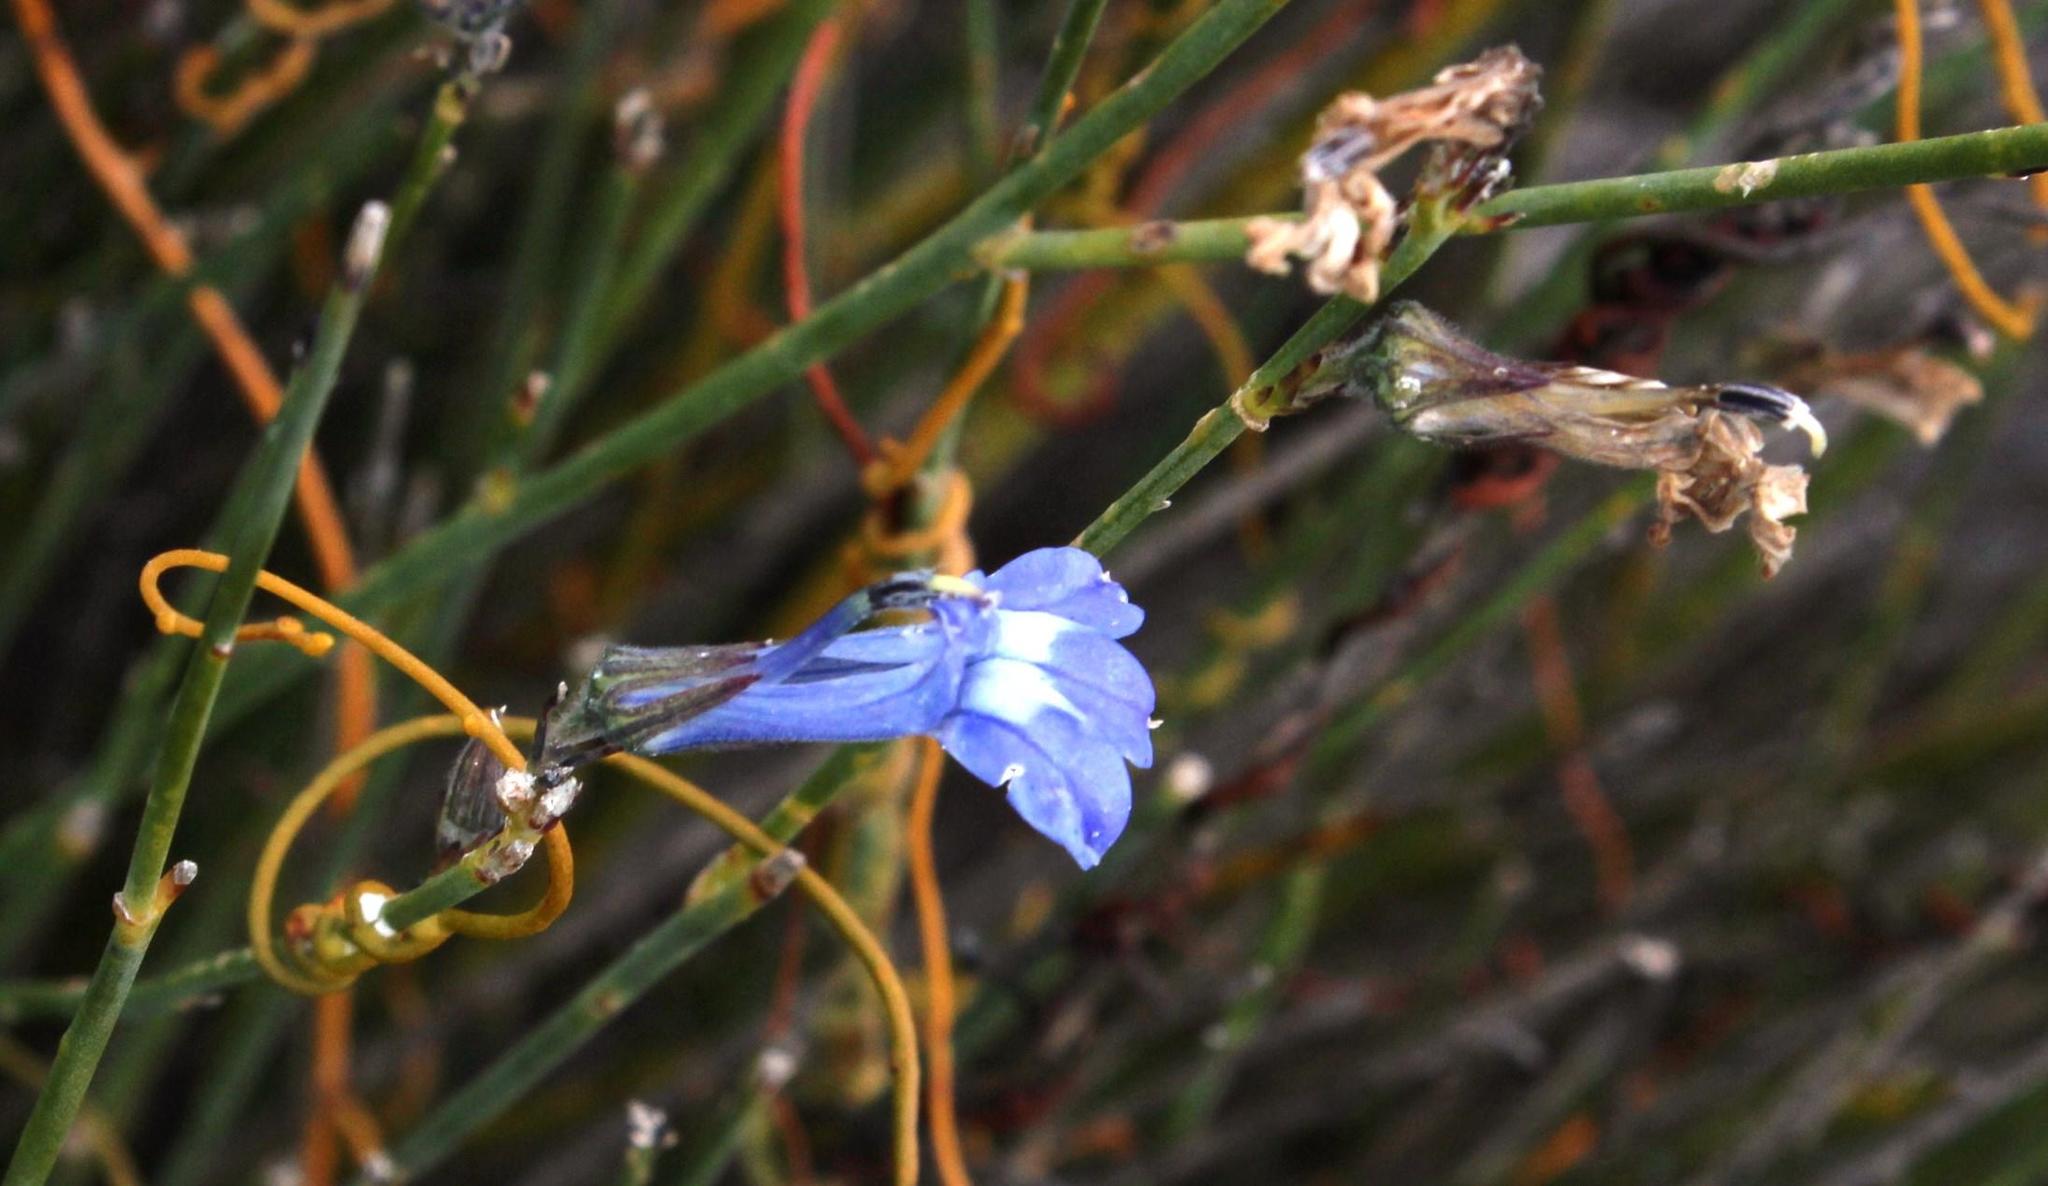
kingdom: Plantae
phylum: Tracheophyta
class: Magnoliopsida
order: Asterales
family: Campanulaceae
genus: Lobelia
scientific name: Lobelia linearis
